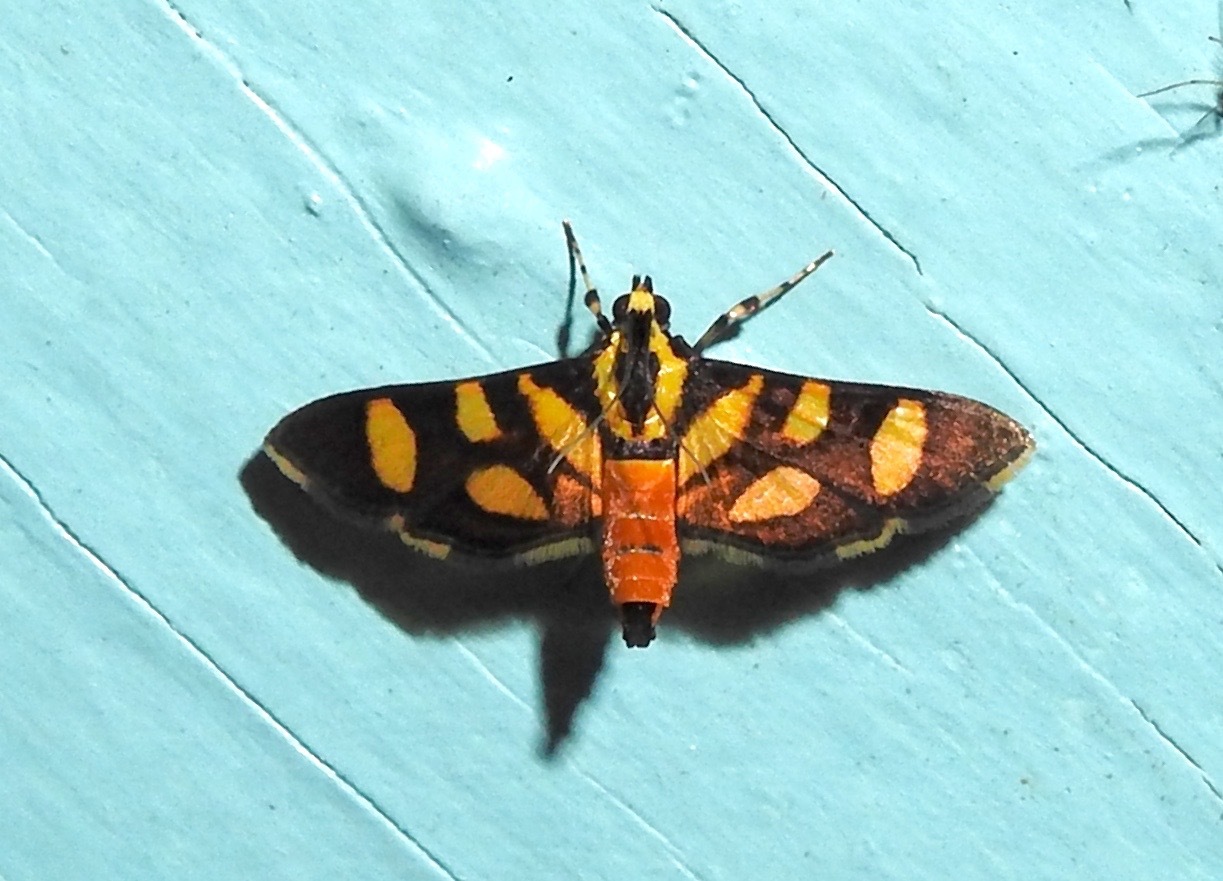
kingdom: Animalia
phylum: Arthropoda
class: Insecta
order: Lepidoptera
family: Crambidae
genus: Syngamia
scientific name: Syngamia florella
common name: Orange-spotted flower moth
